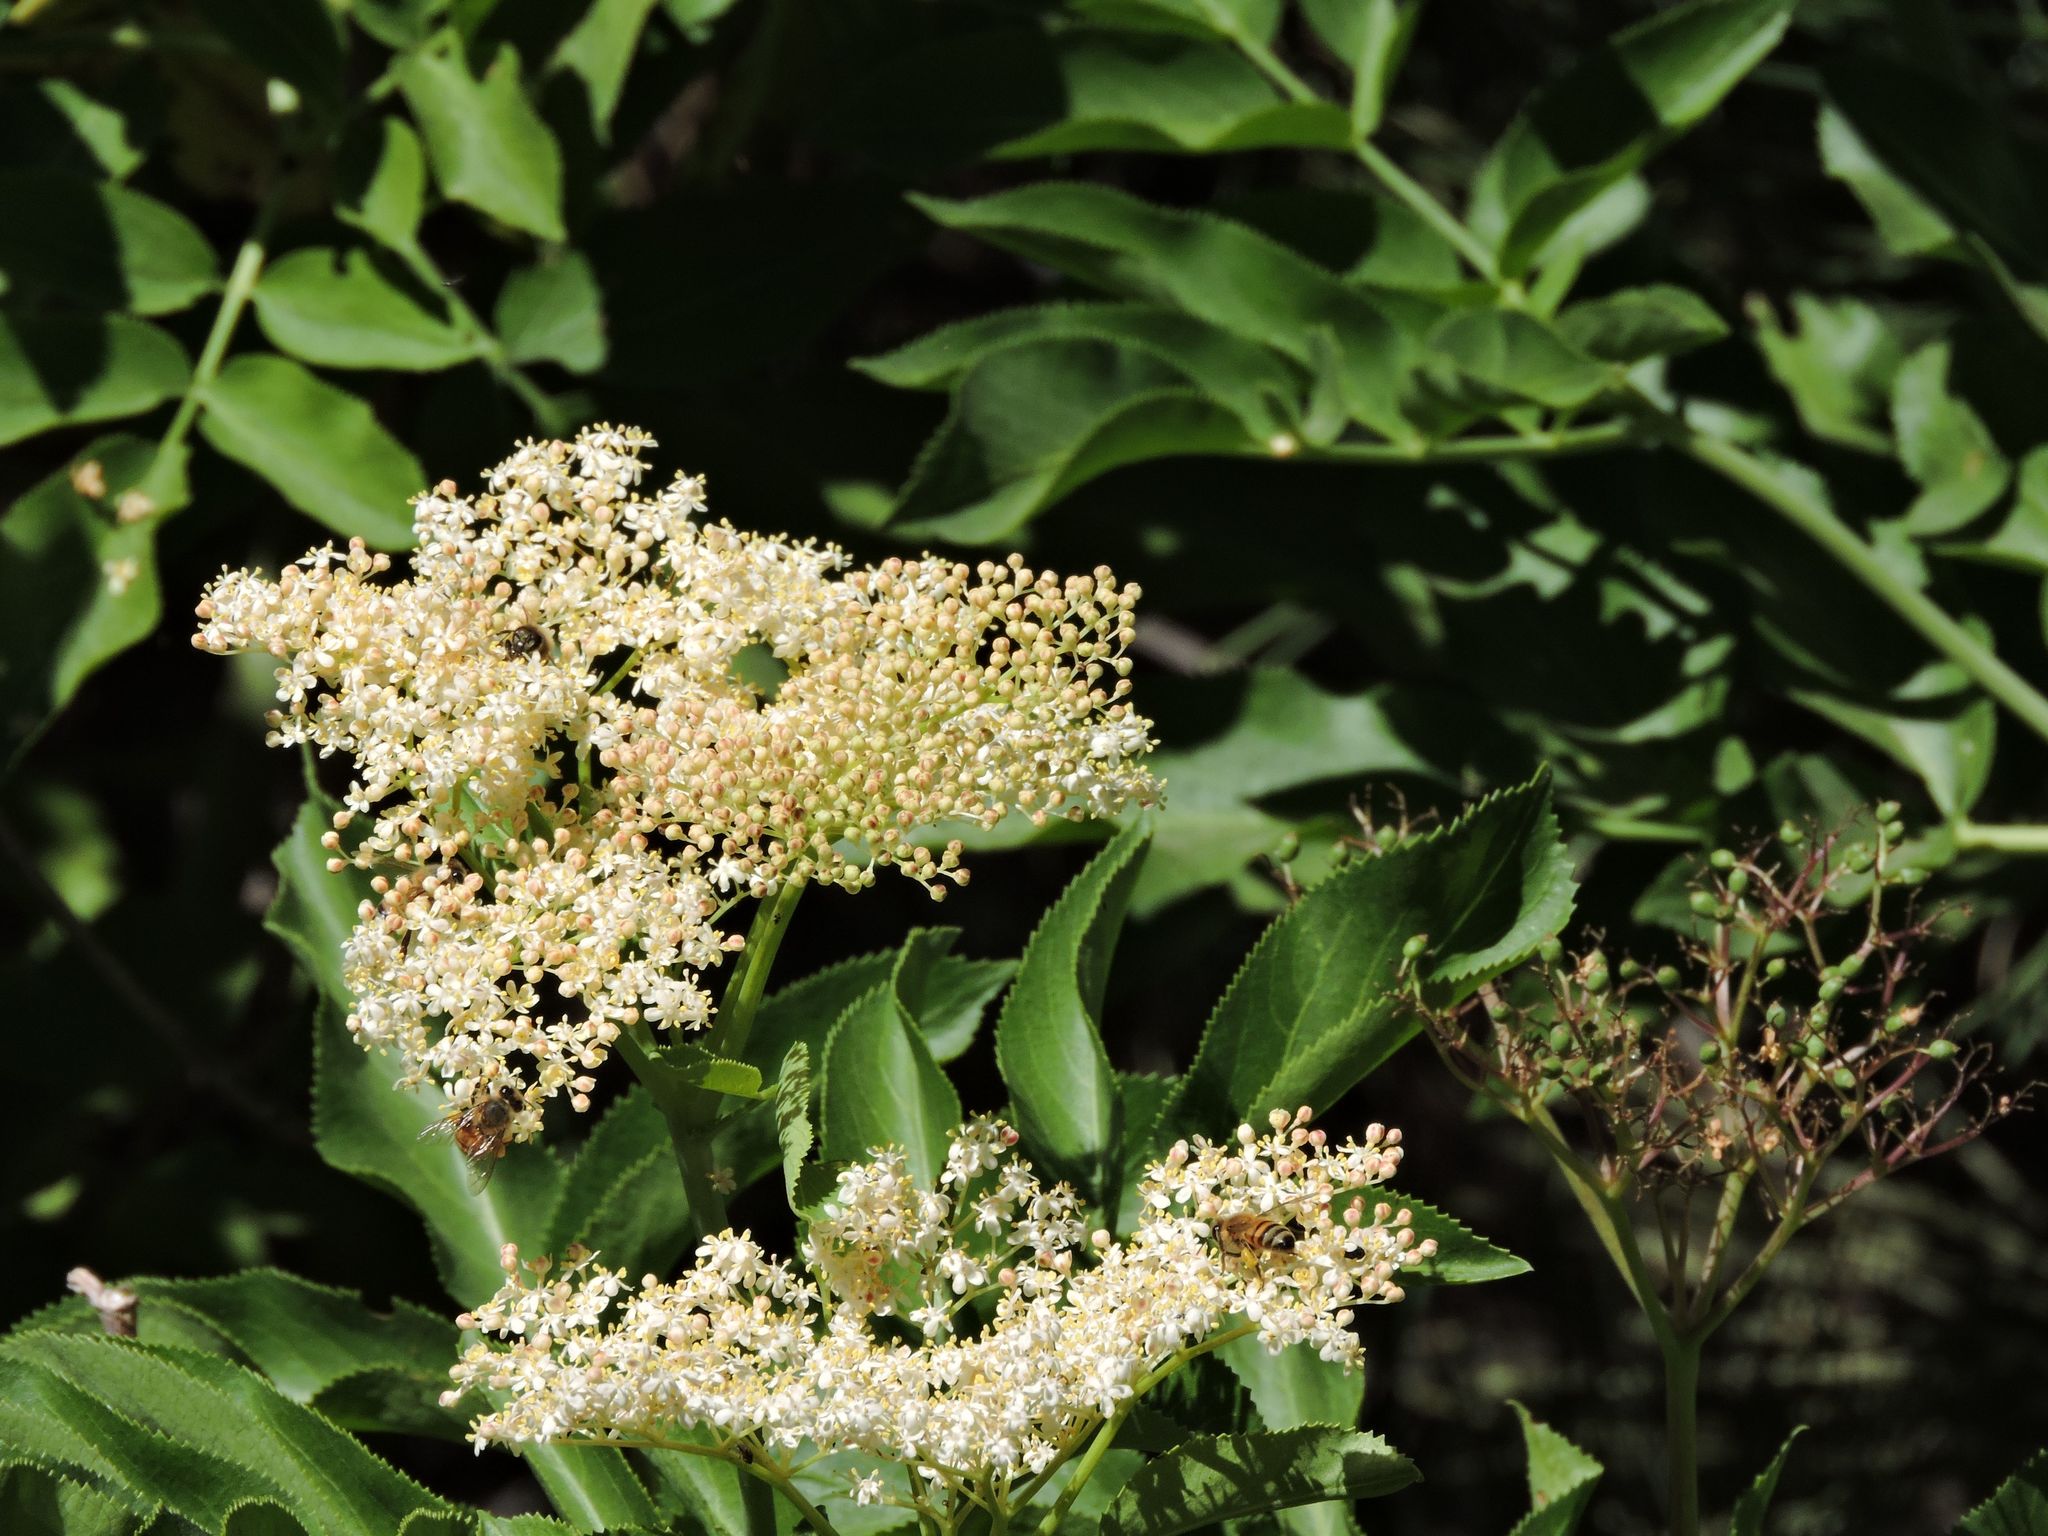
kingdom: Plantae
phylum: Tracheophyta
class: Magnoliopsida
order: Dipsacales
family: Viburnaceae
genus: Sambucus
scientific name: Sambucus cerulea
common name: Blue elder
